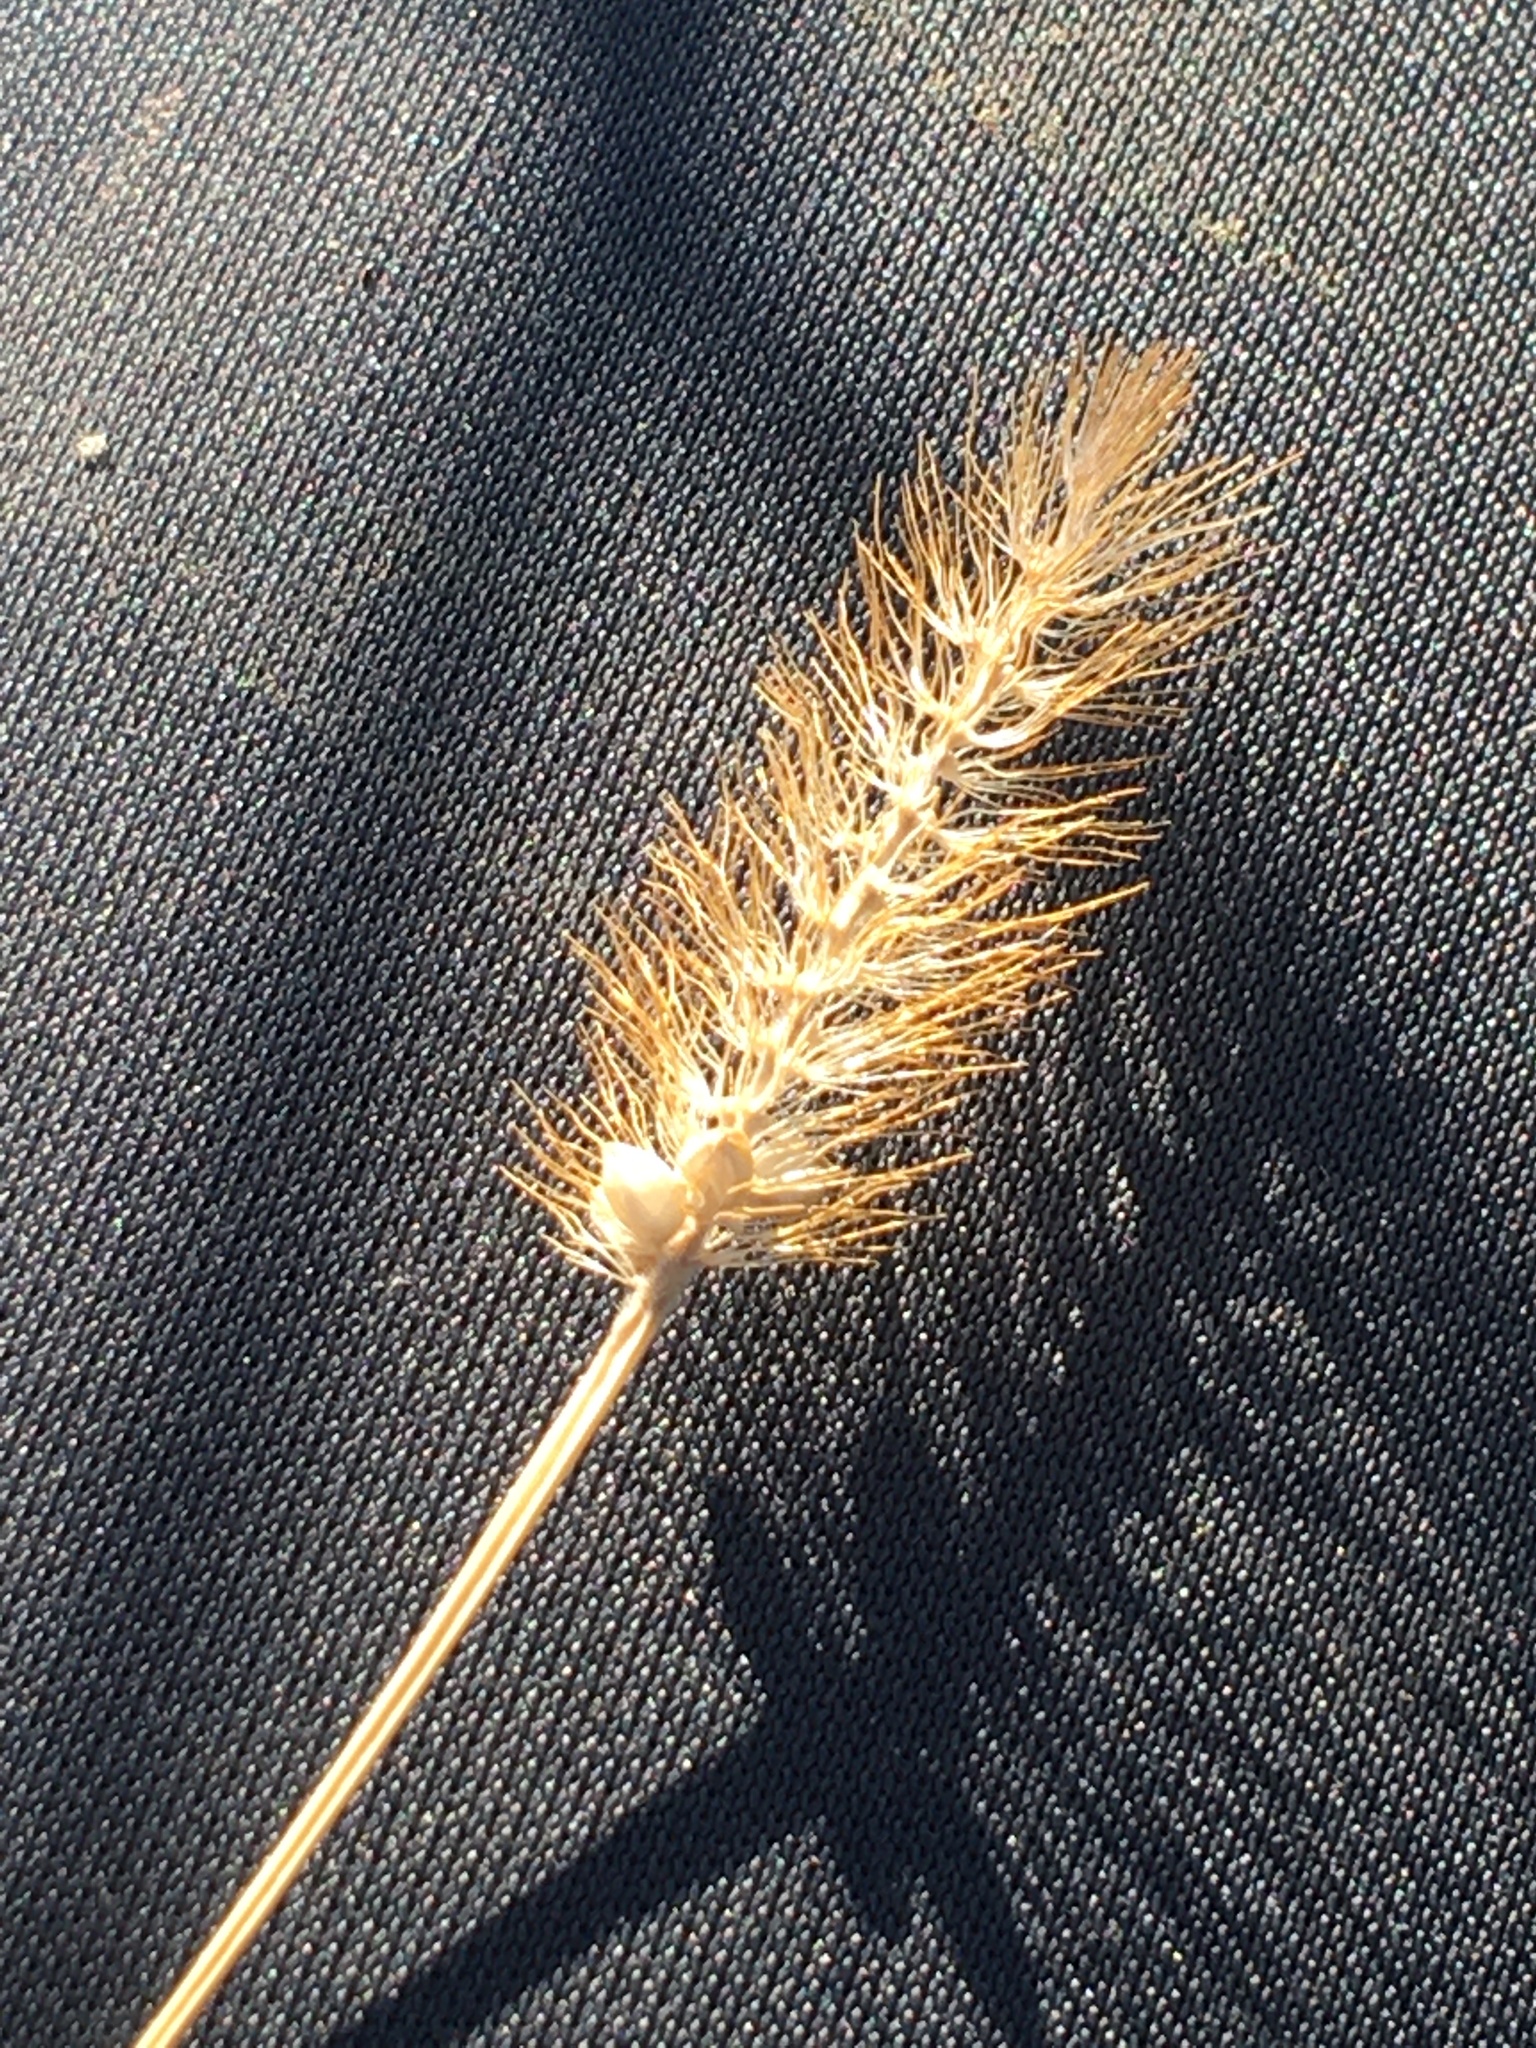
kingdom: Plantae
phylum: Tracheophyta
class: Liliopsida
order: Poales
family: Poaceae
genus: Setaria
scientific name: Setaria pumila
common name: Yellow bristle-grass
